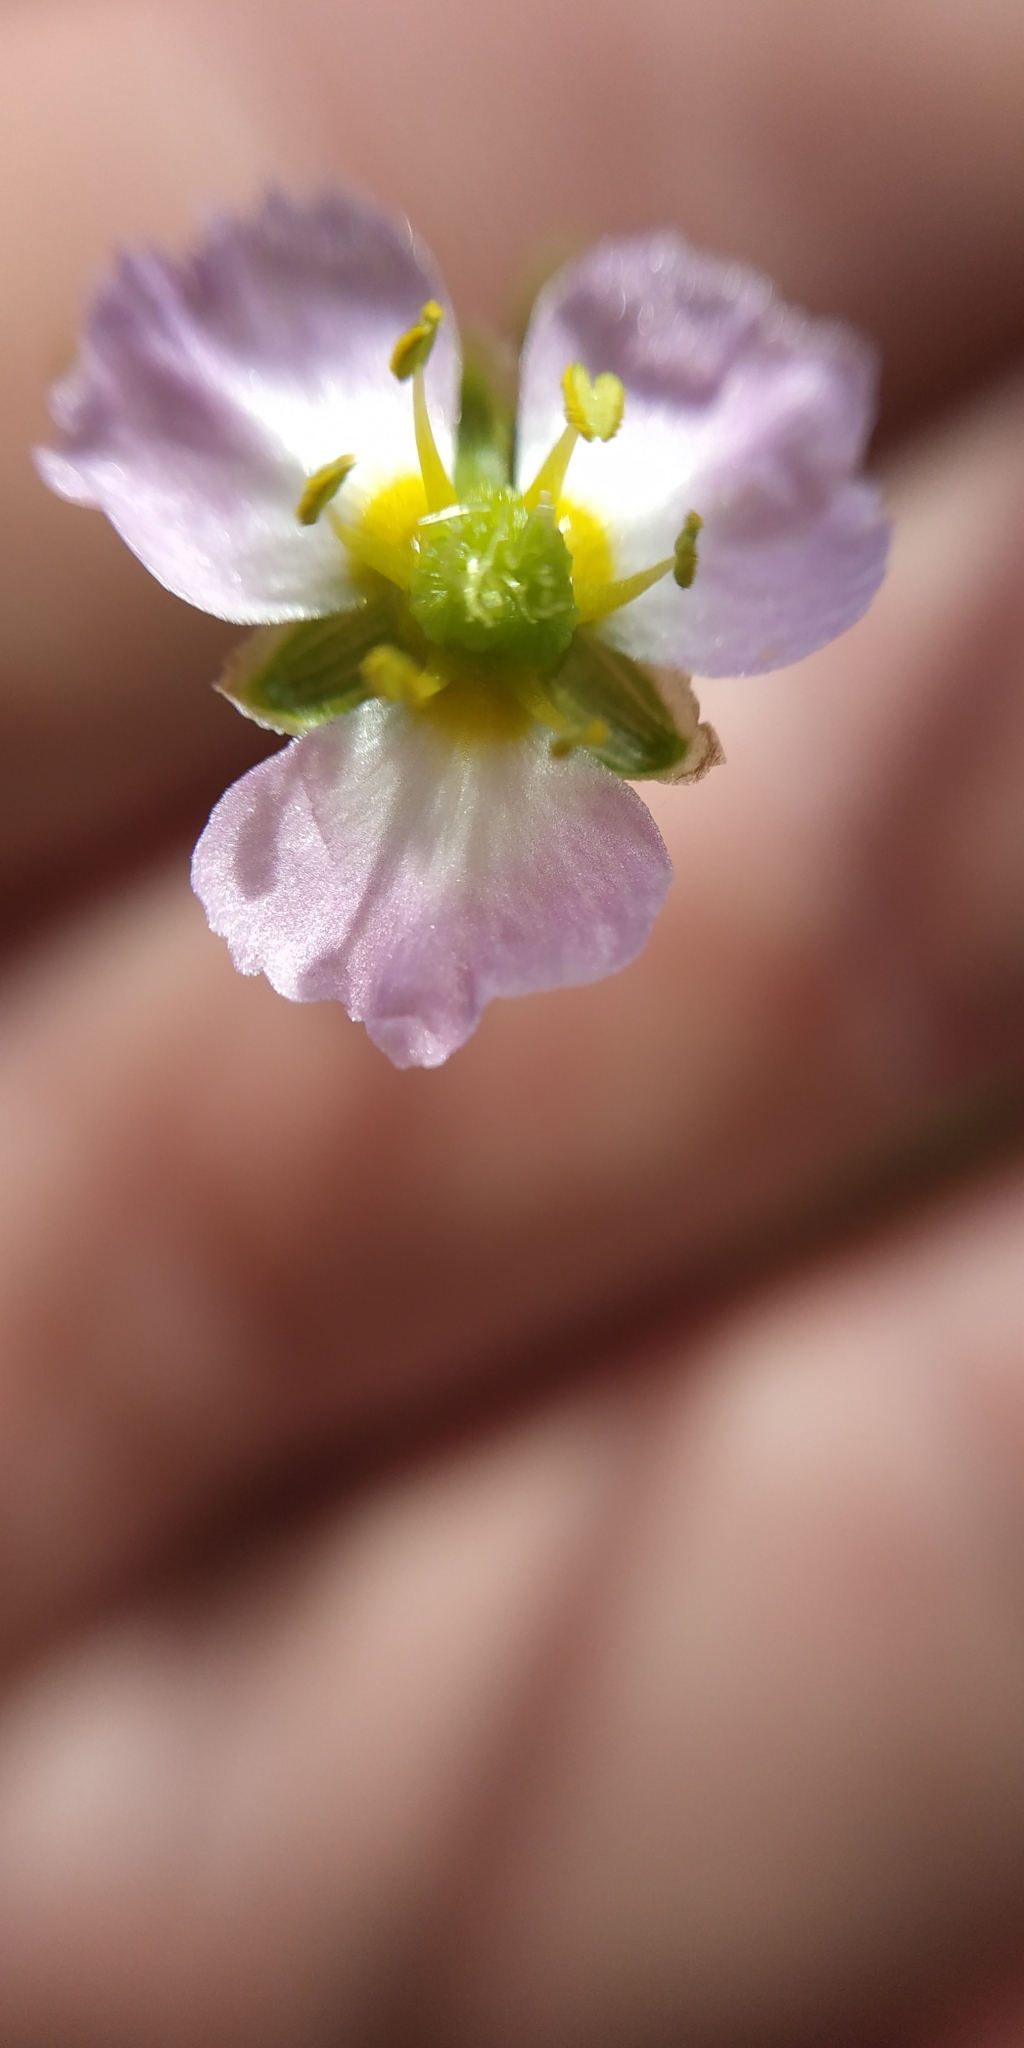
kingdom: Plantae
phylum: Tracheophyta
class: Liliopsida
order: Alismatales
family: Alismataceae
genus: Alisma
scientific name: Alisma plantago-aquatica
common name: Water-plantain
